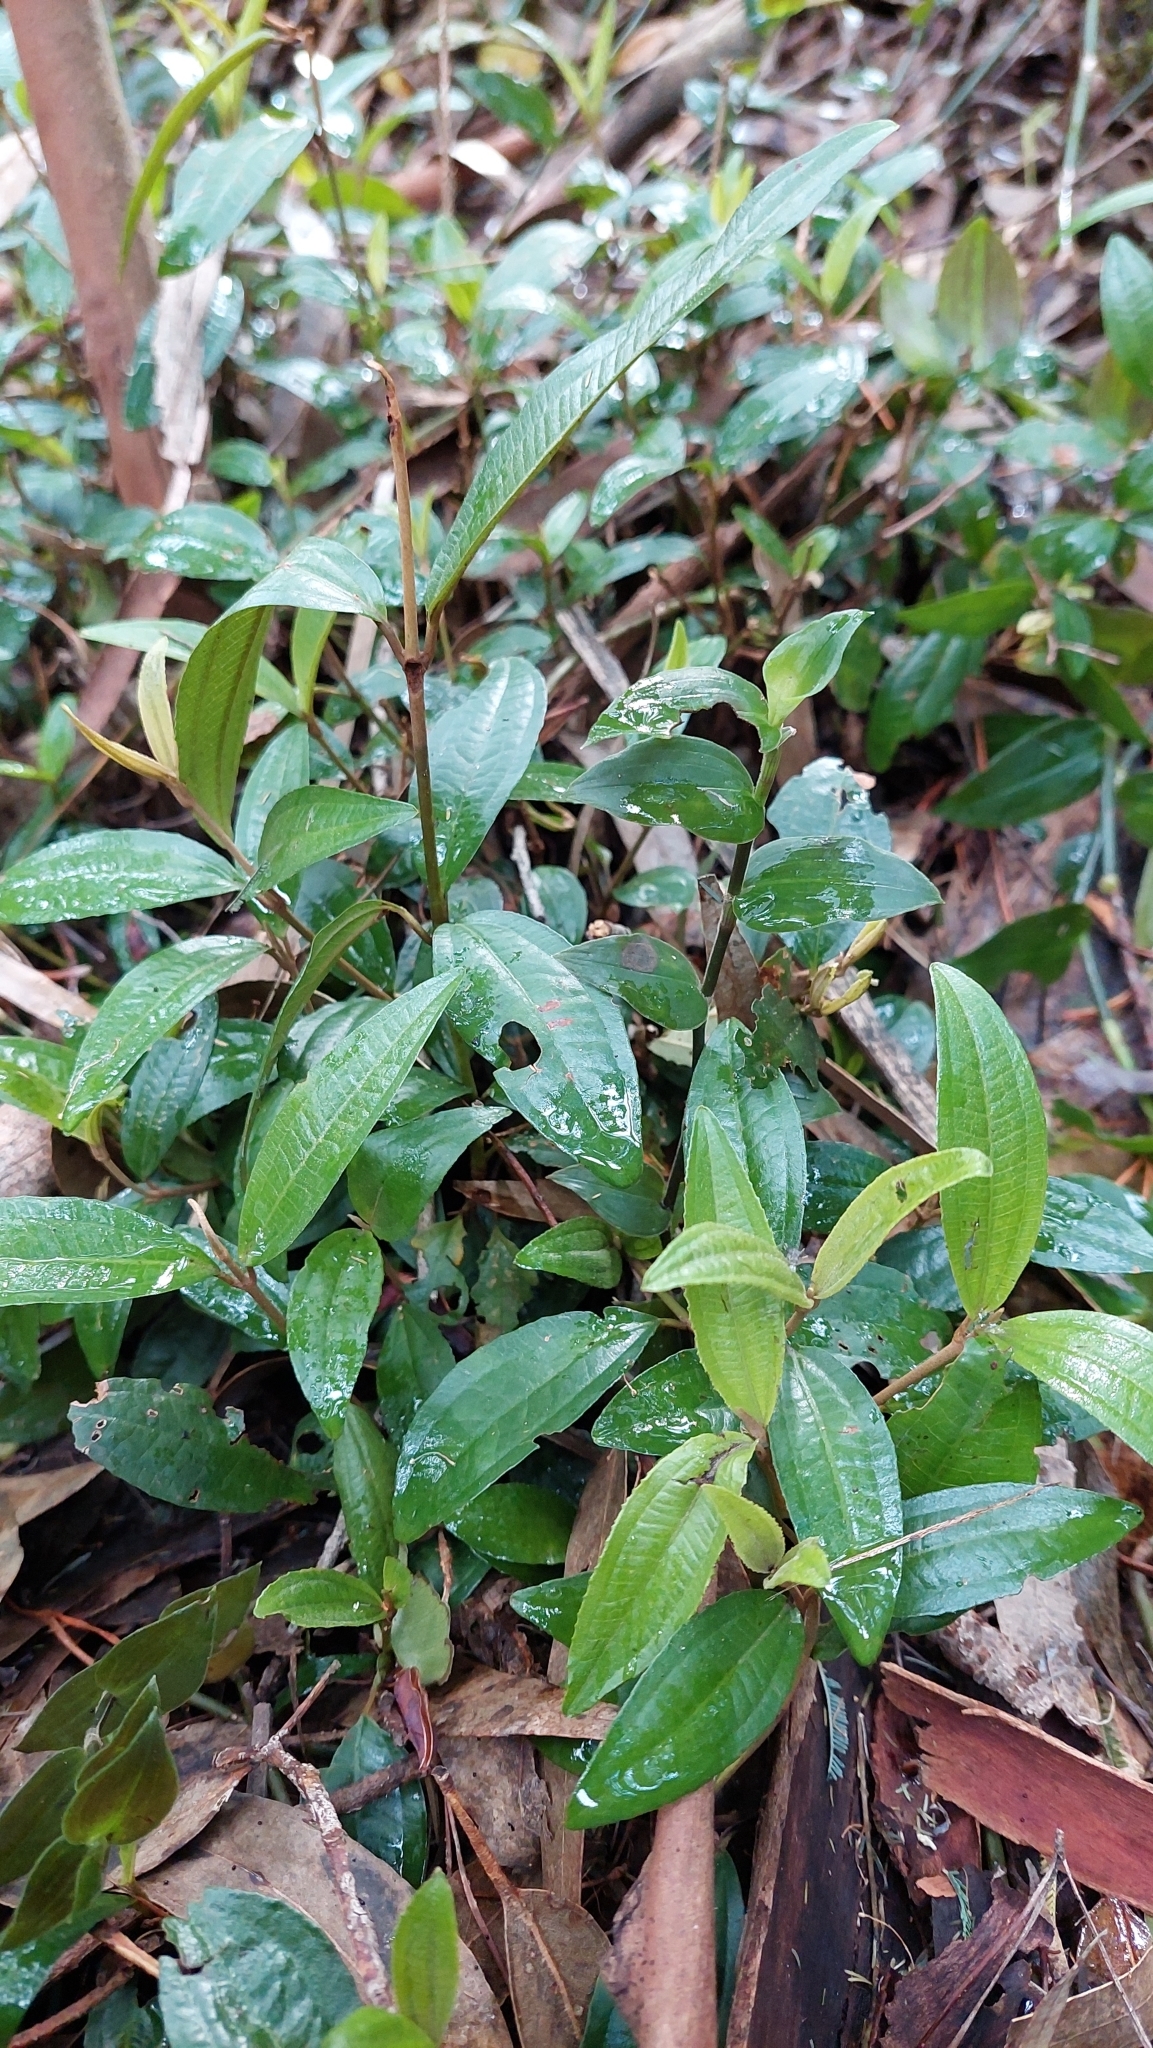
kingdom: Plantae
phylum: Tracheophyta
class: Magnoliopsida
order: Myrtales
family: Melastomataceae
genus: Miconia
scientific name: Miconia squamulosa
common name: Squamulose maya
